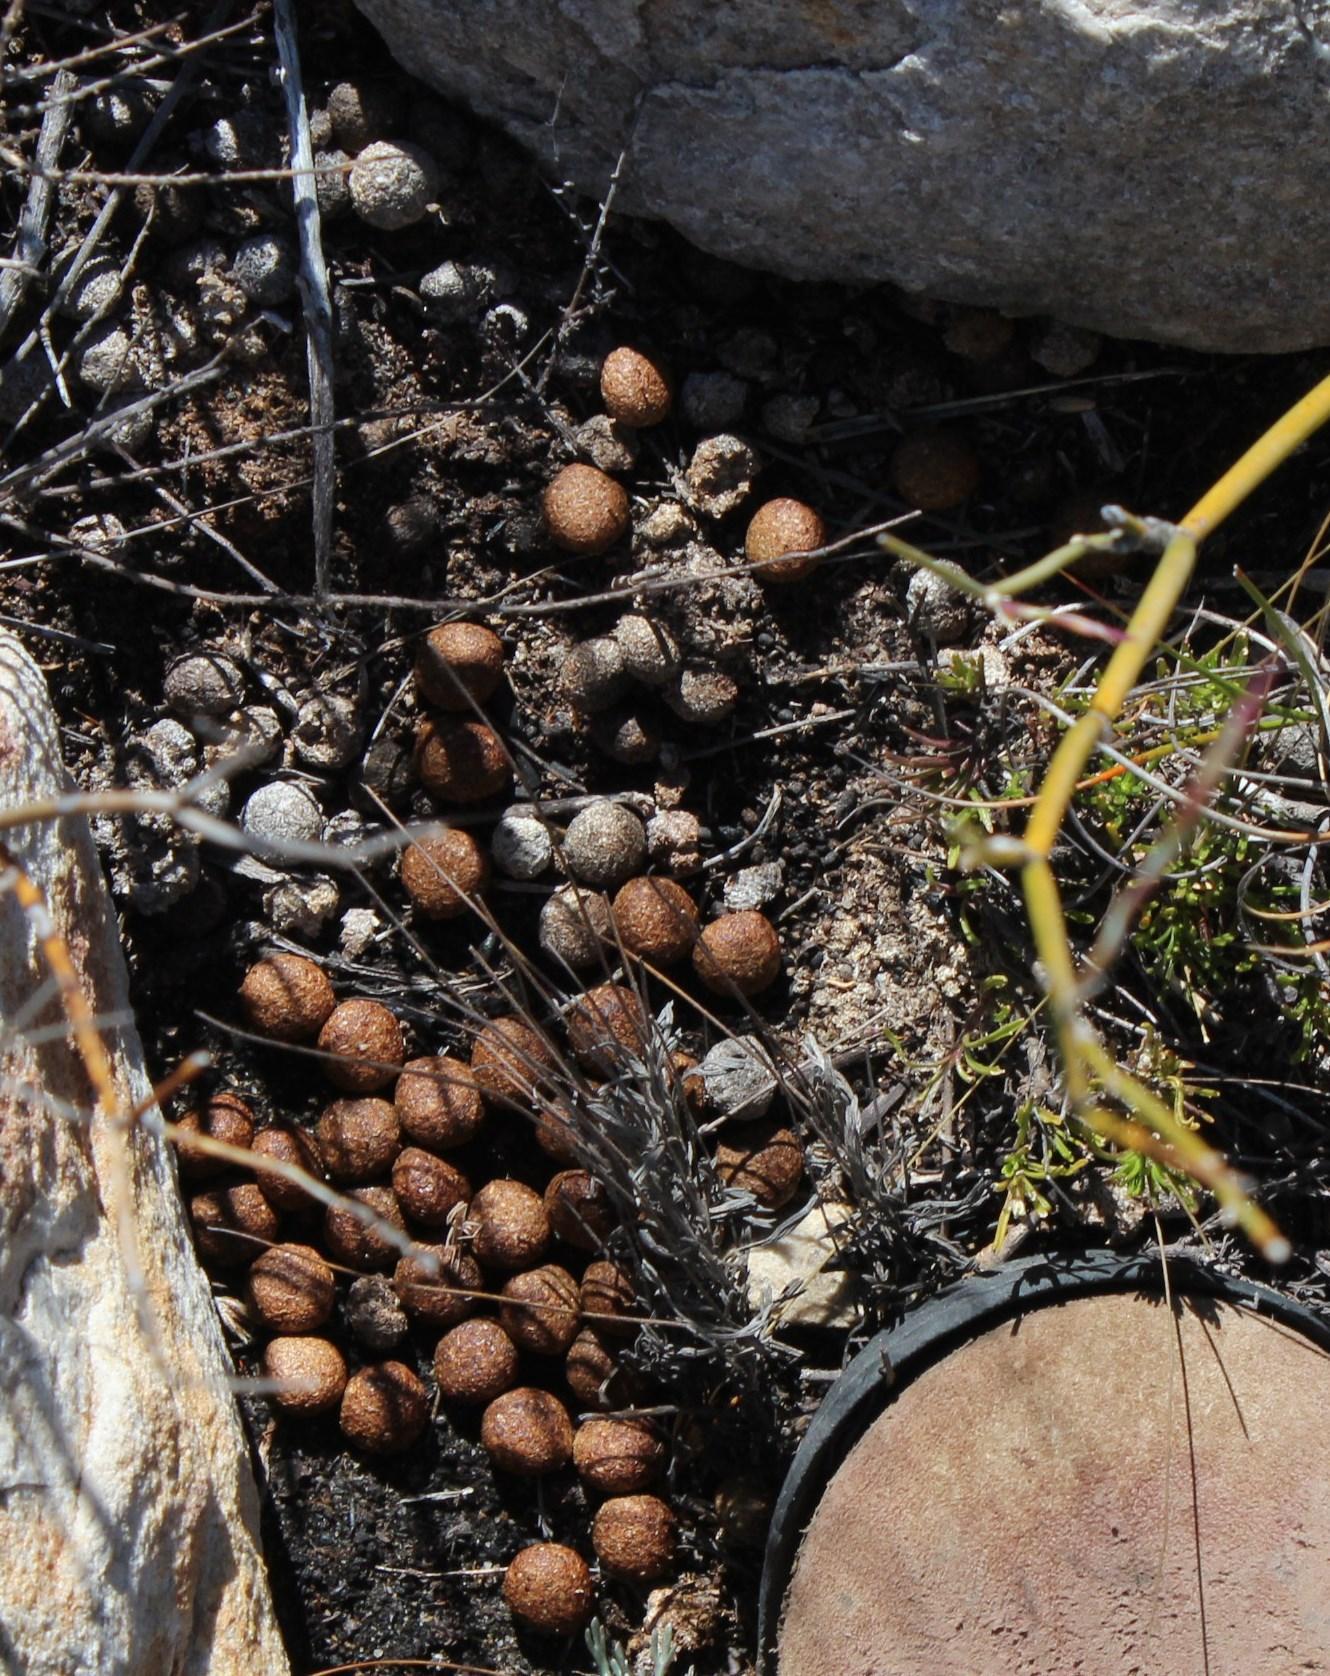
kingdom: Animalia
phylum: Chordata
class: Mammalia
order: Lagomorpha
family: Leporidae
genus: Pronolagus
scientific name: Pronolagus saundersiae
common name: Hewitt's red rock hare
